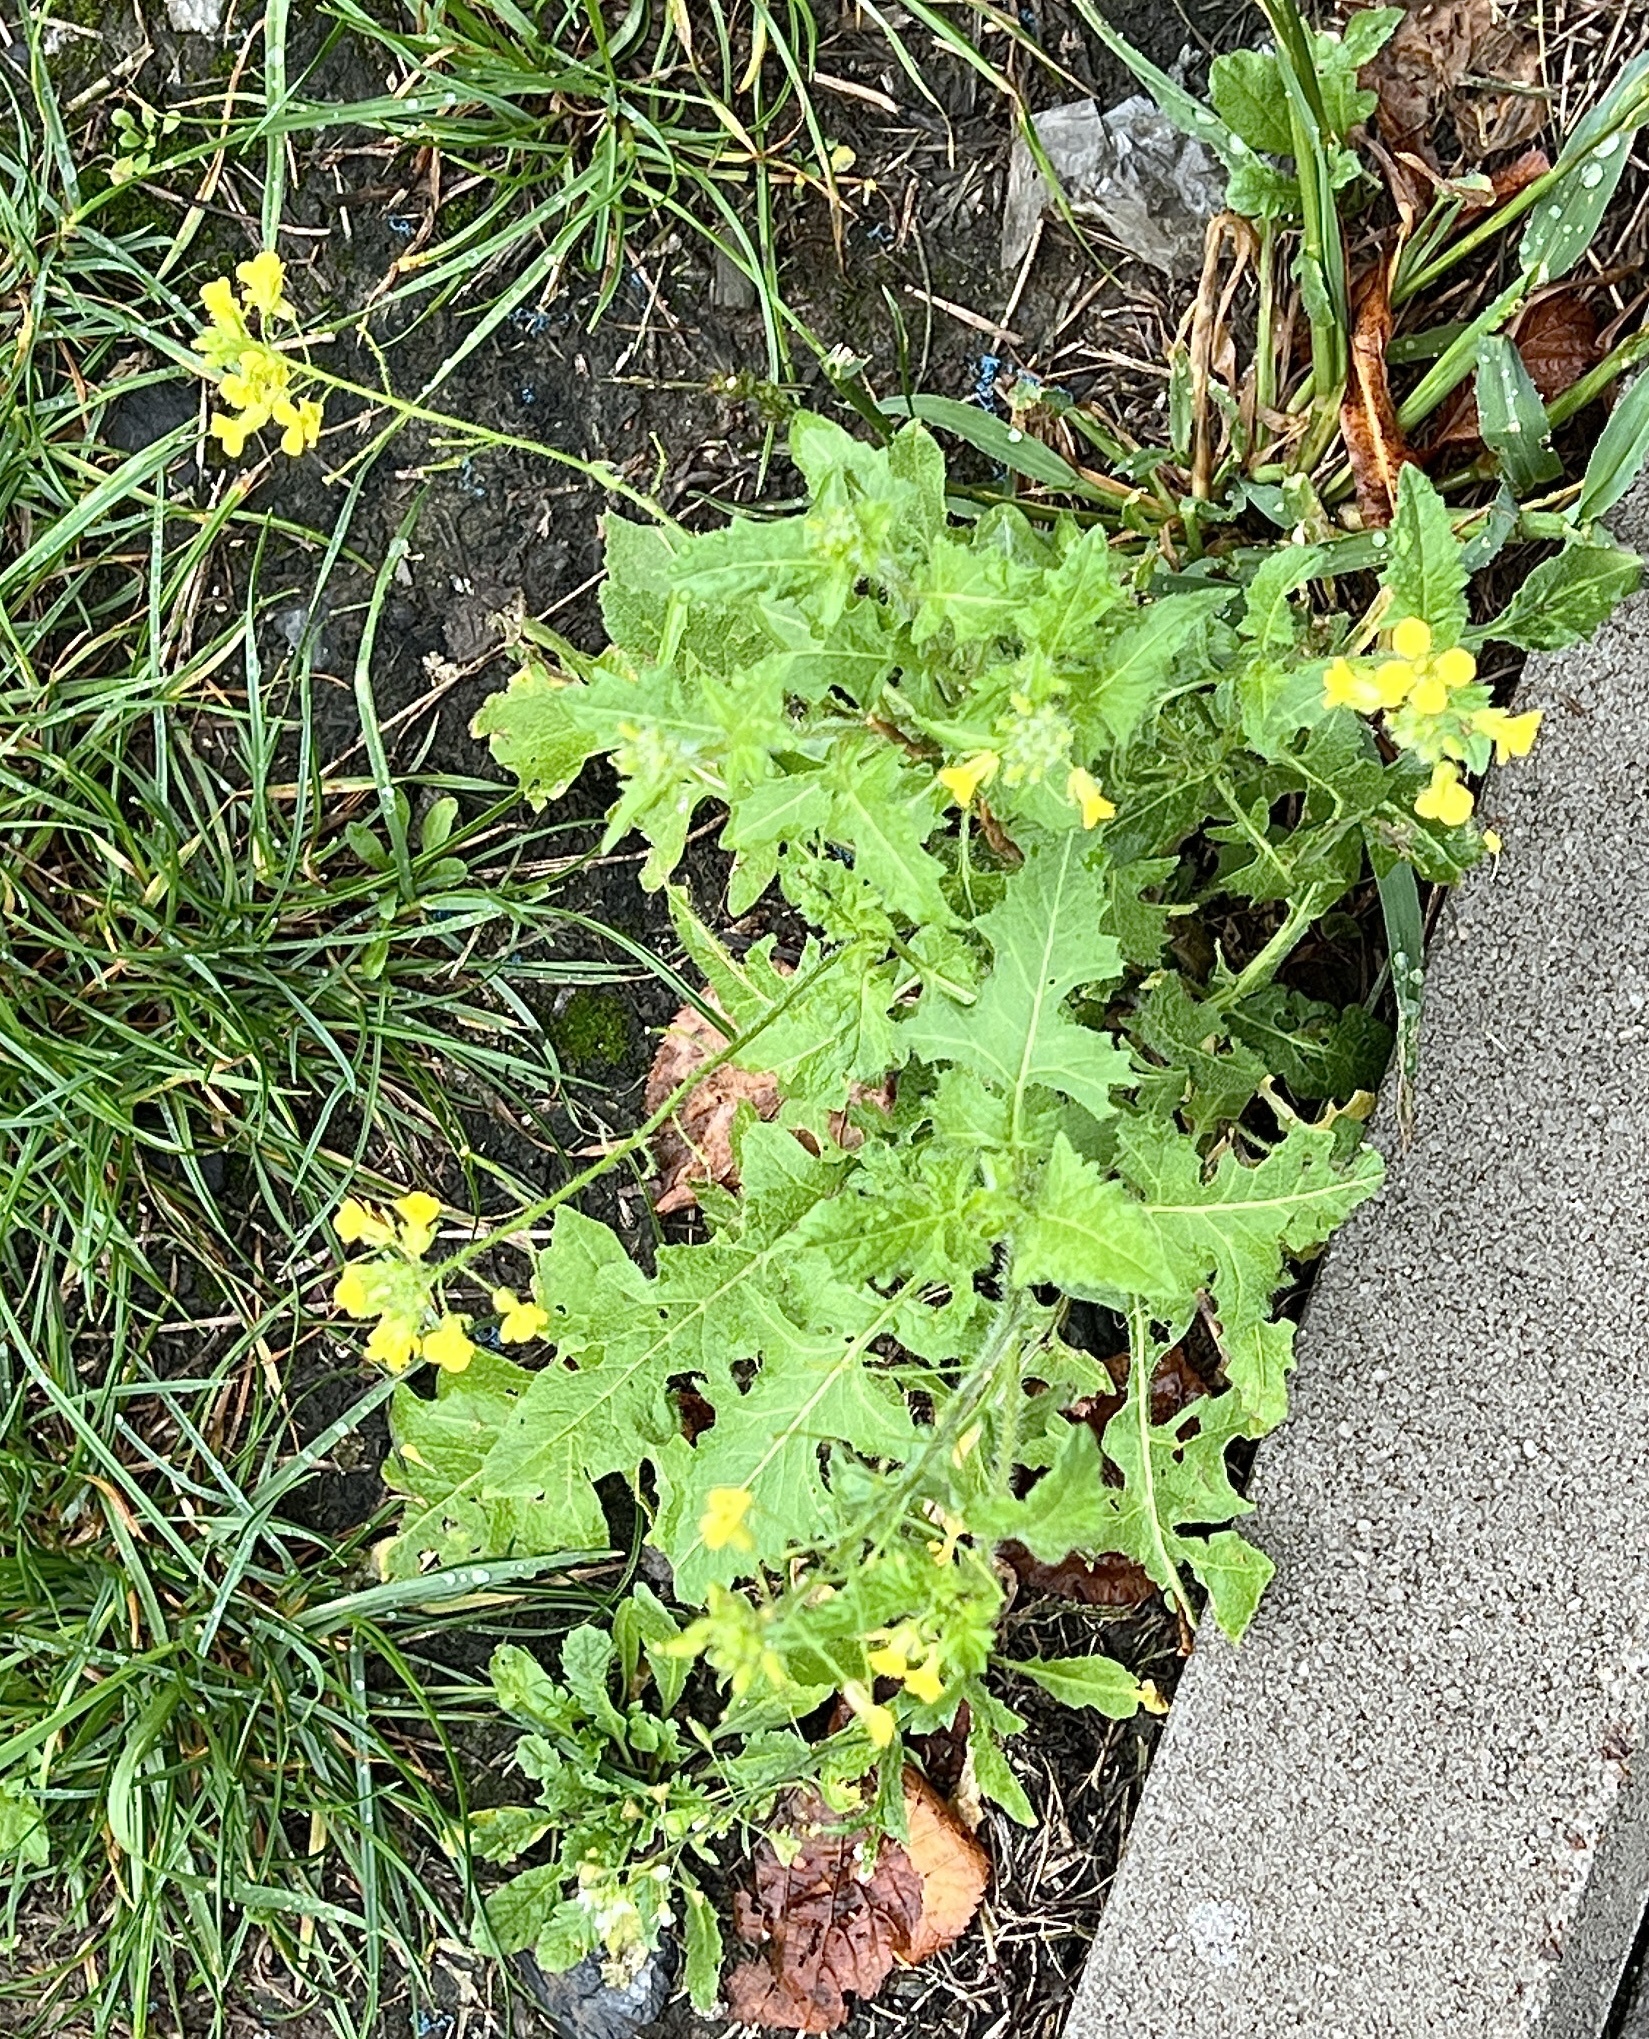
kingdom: Plantae
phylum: Tracheophyta
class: Magnoliopsida
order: Brassicales
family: Brassicaceae
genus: Sisymbrium
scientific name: Sisymbrium loeselii
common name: False london-rocket
